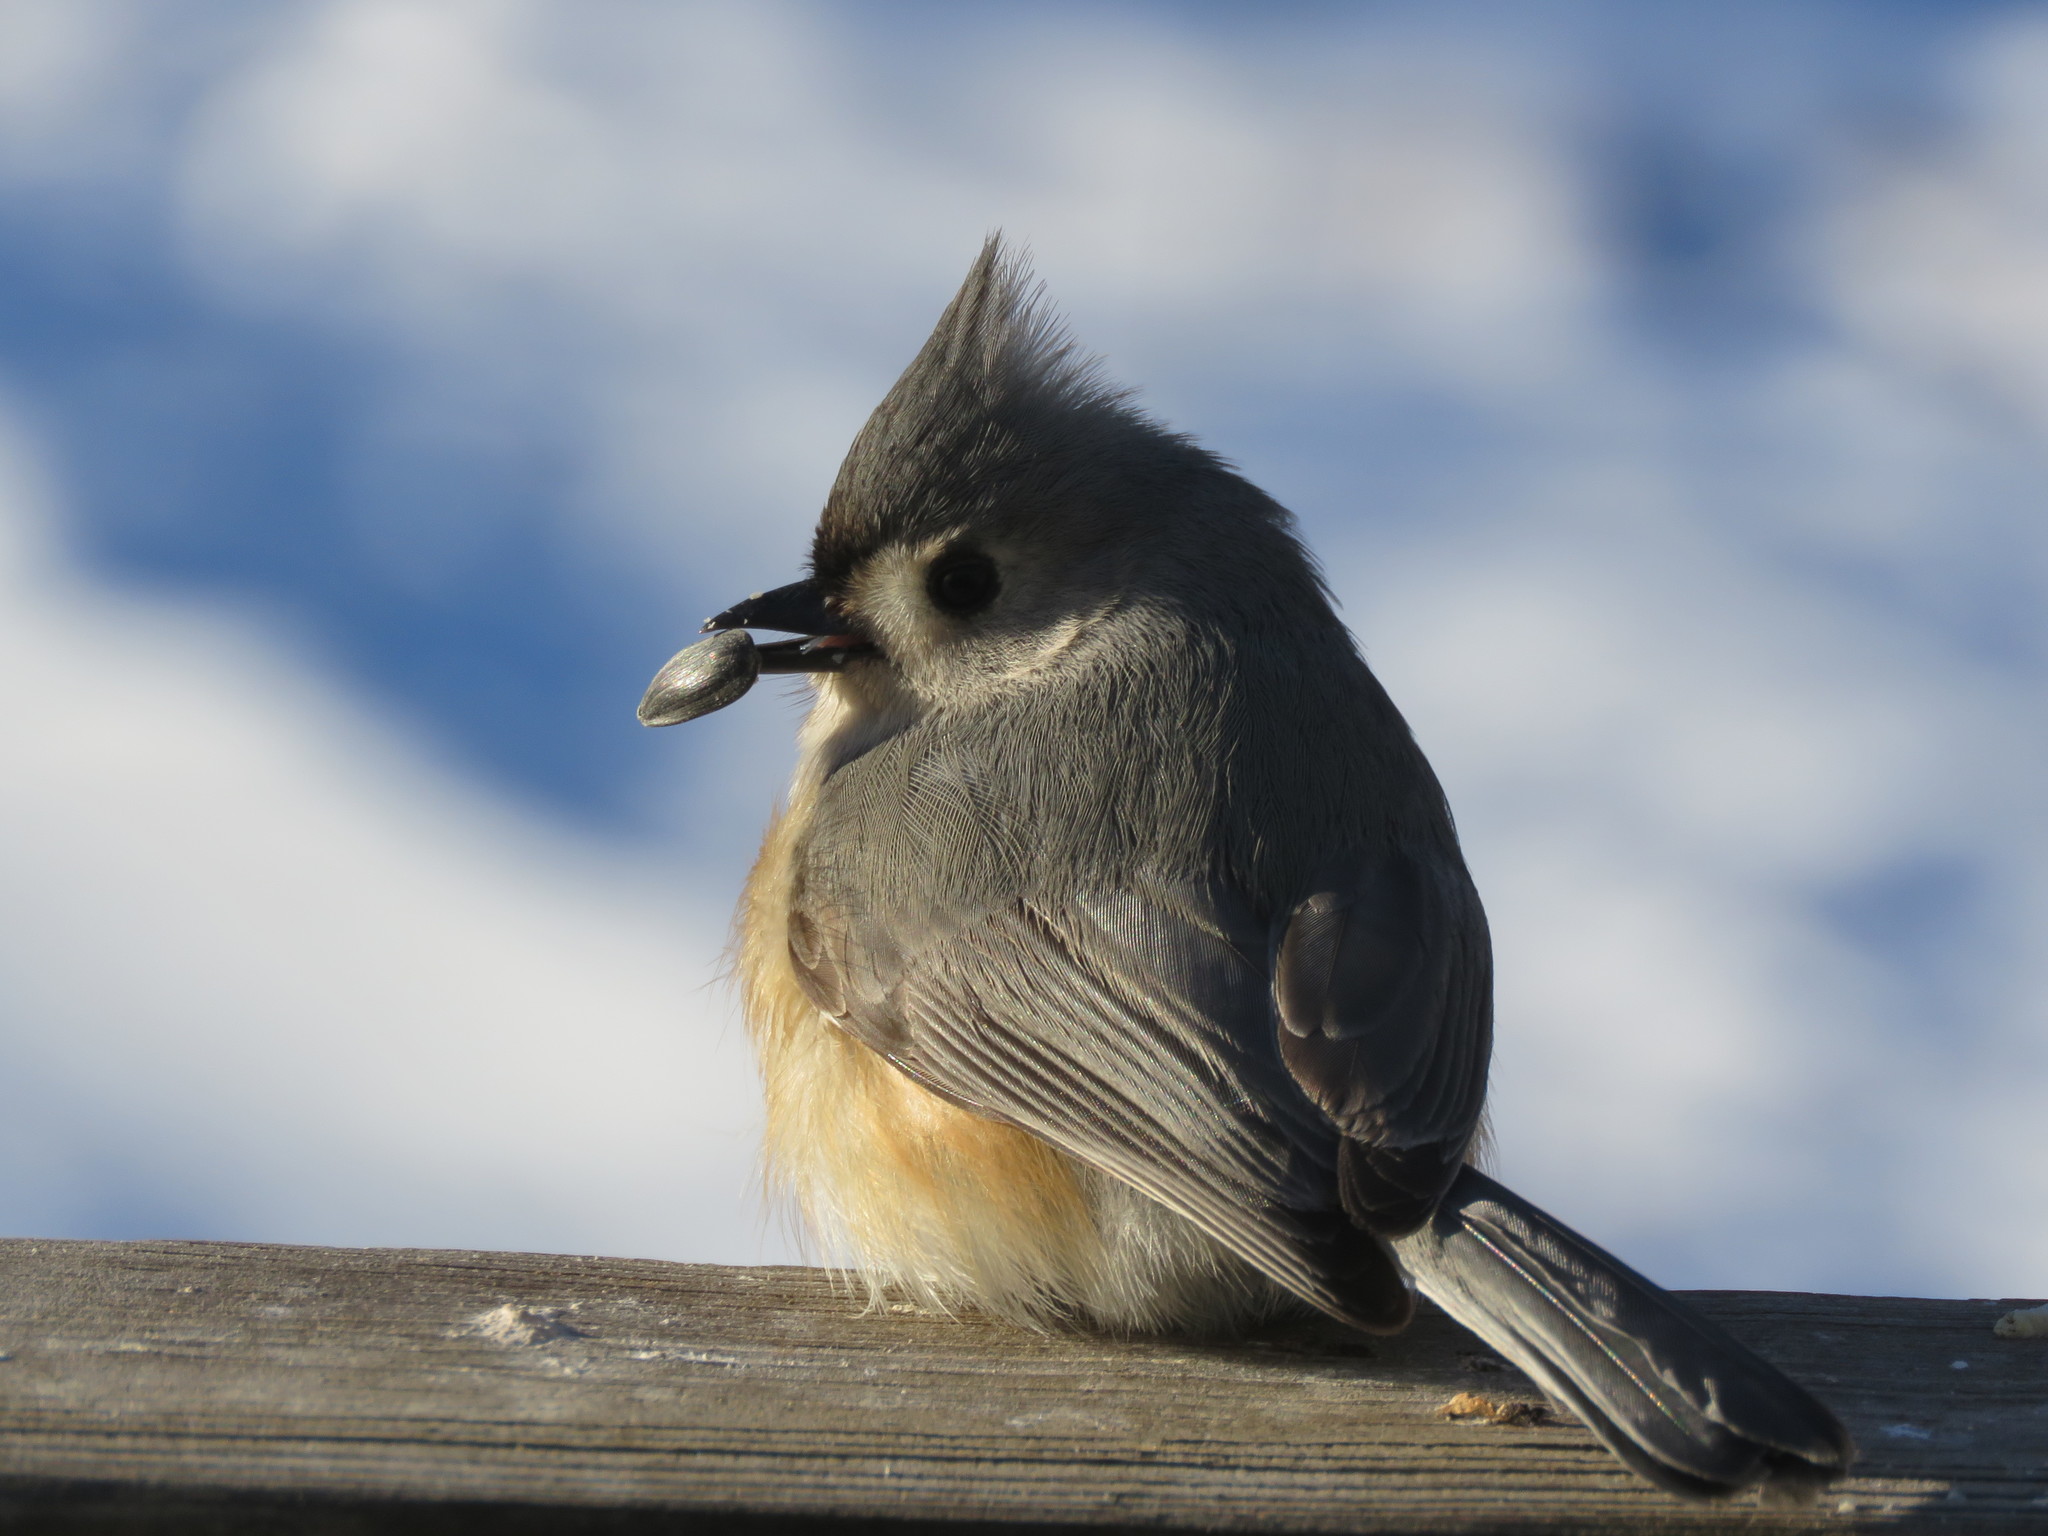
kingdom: Animalia
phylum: Chordata
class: Aves
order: Passeriformes
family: Paridae
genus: Baeolophus
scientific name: Baeolophus bicolor
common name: Tufted titmouse
